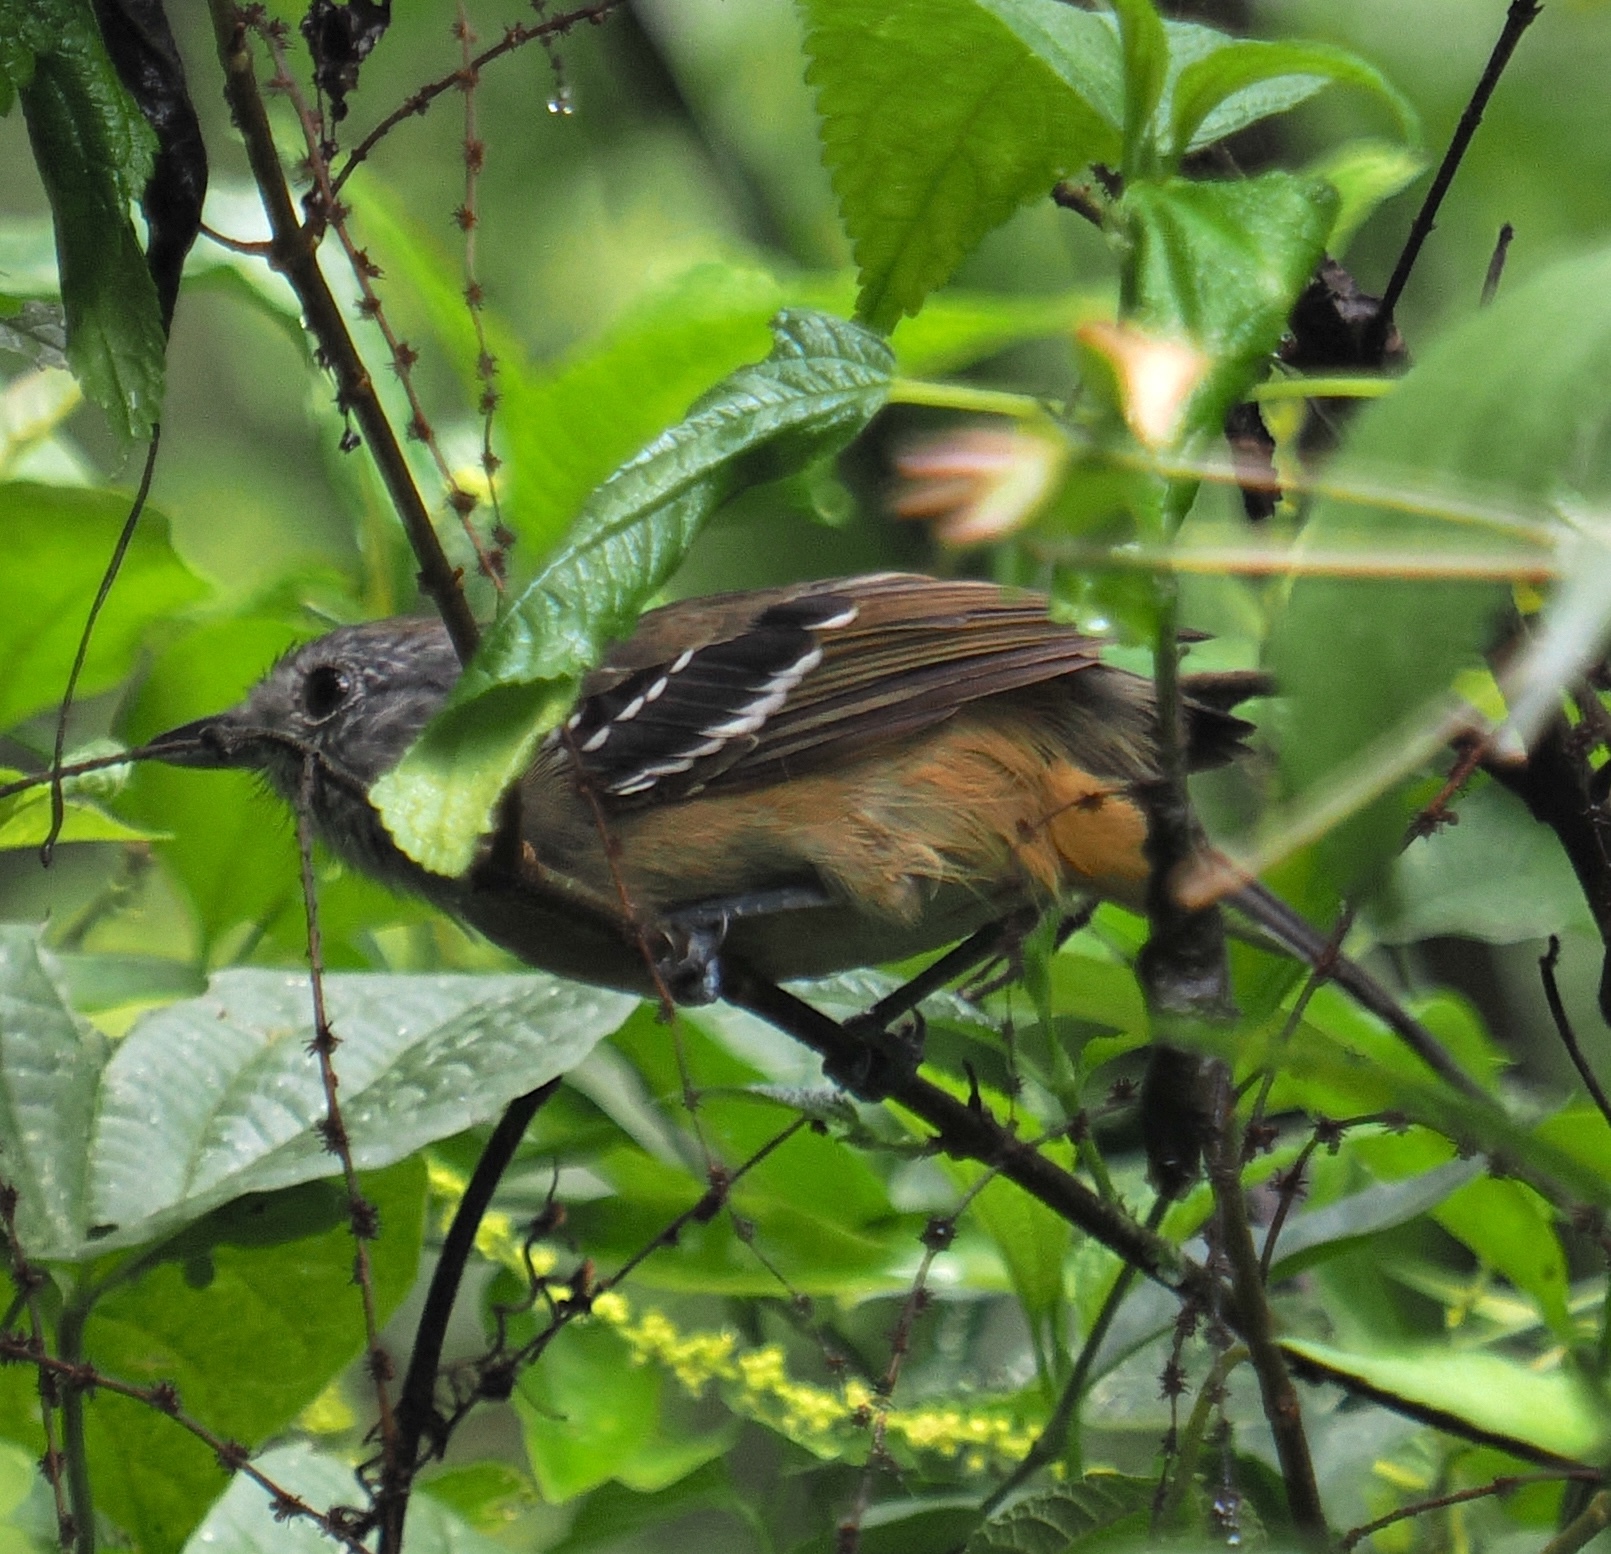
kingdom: Animalia
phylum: Chordata
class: Aves
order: Passeriformes
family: Thamnophilidae
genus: Thamnophilus
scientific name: Thamnophilus caerulescens
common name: Variable antshrike
